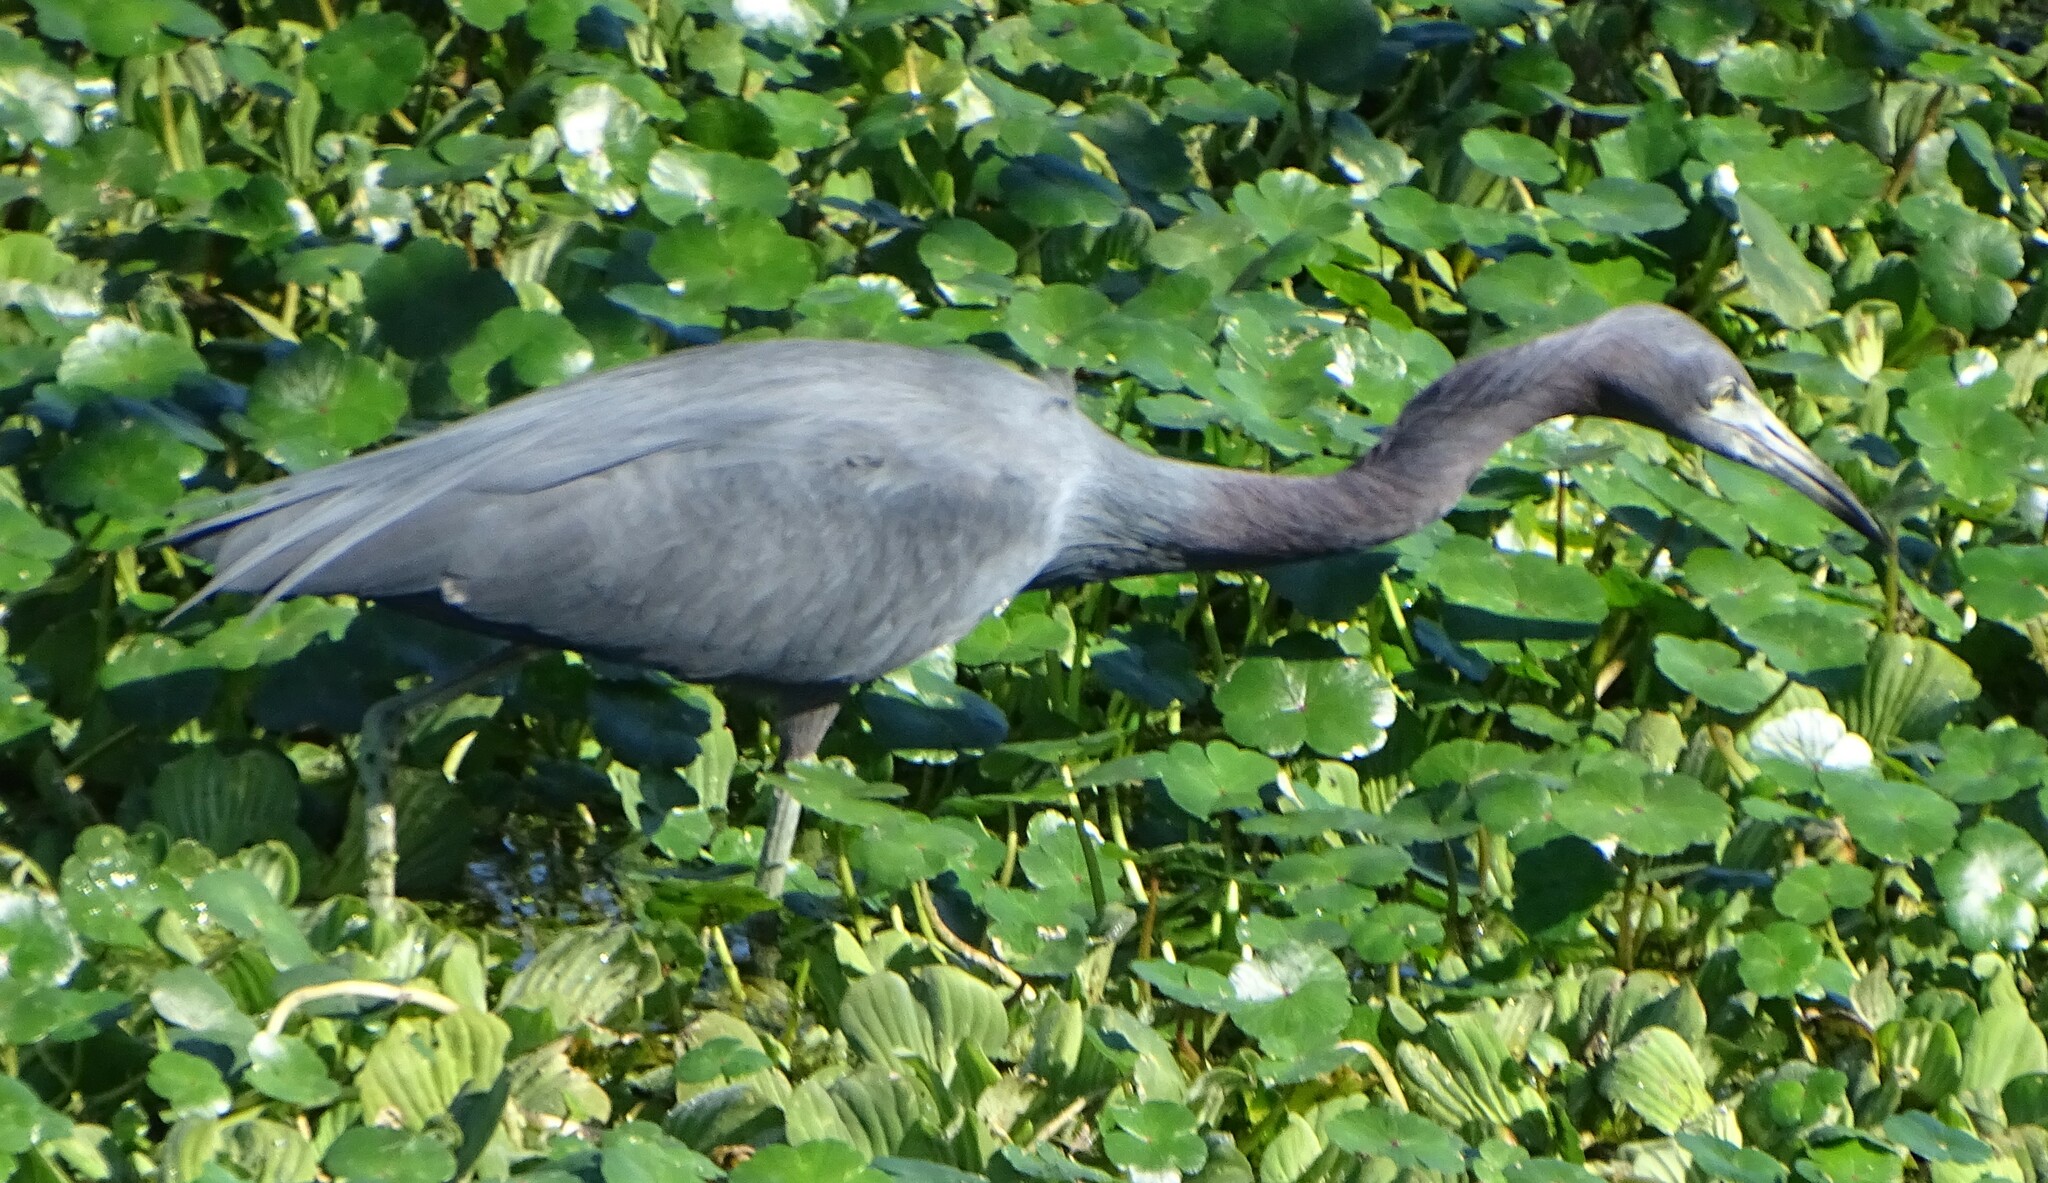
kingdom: Animalia
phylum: Chordata
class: Aves
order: Pelecaniformes
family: Ardeidae
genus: Egretta
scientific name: Egretta caerulea
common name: Little blue heron
